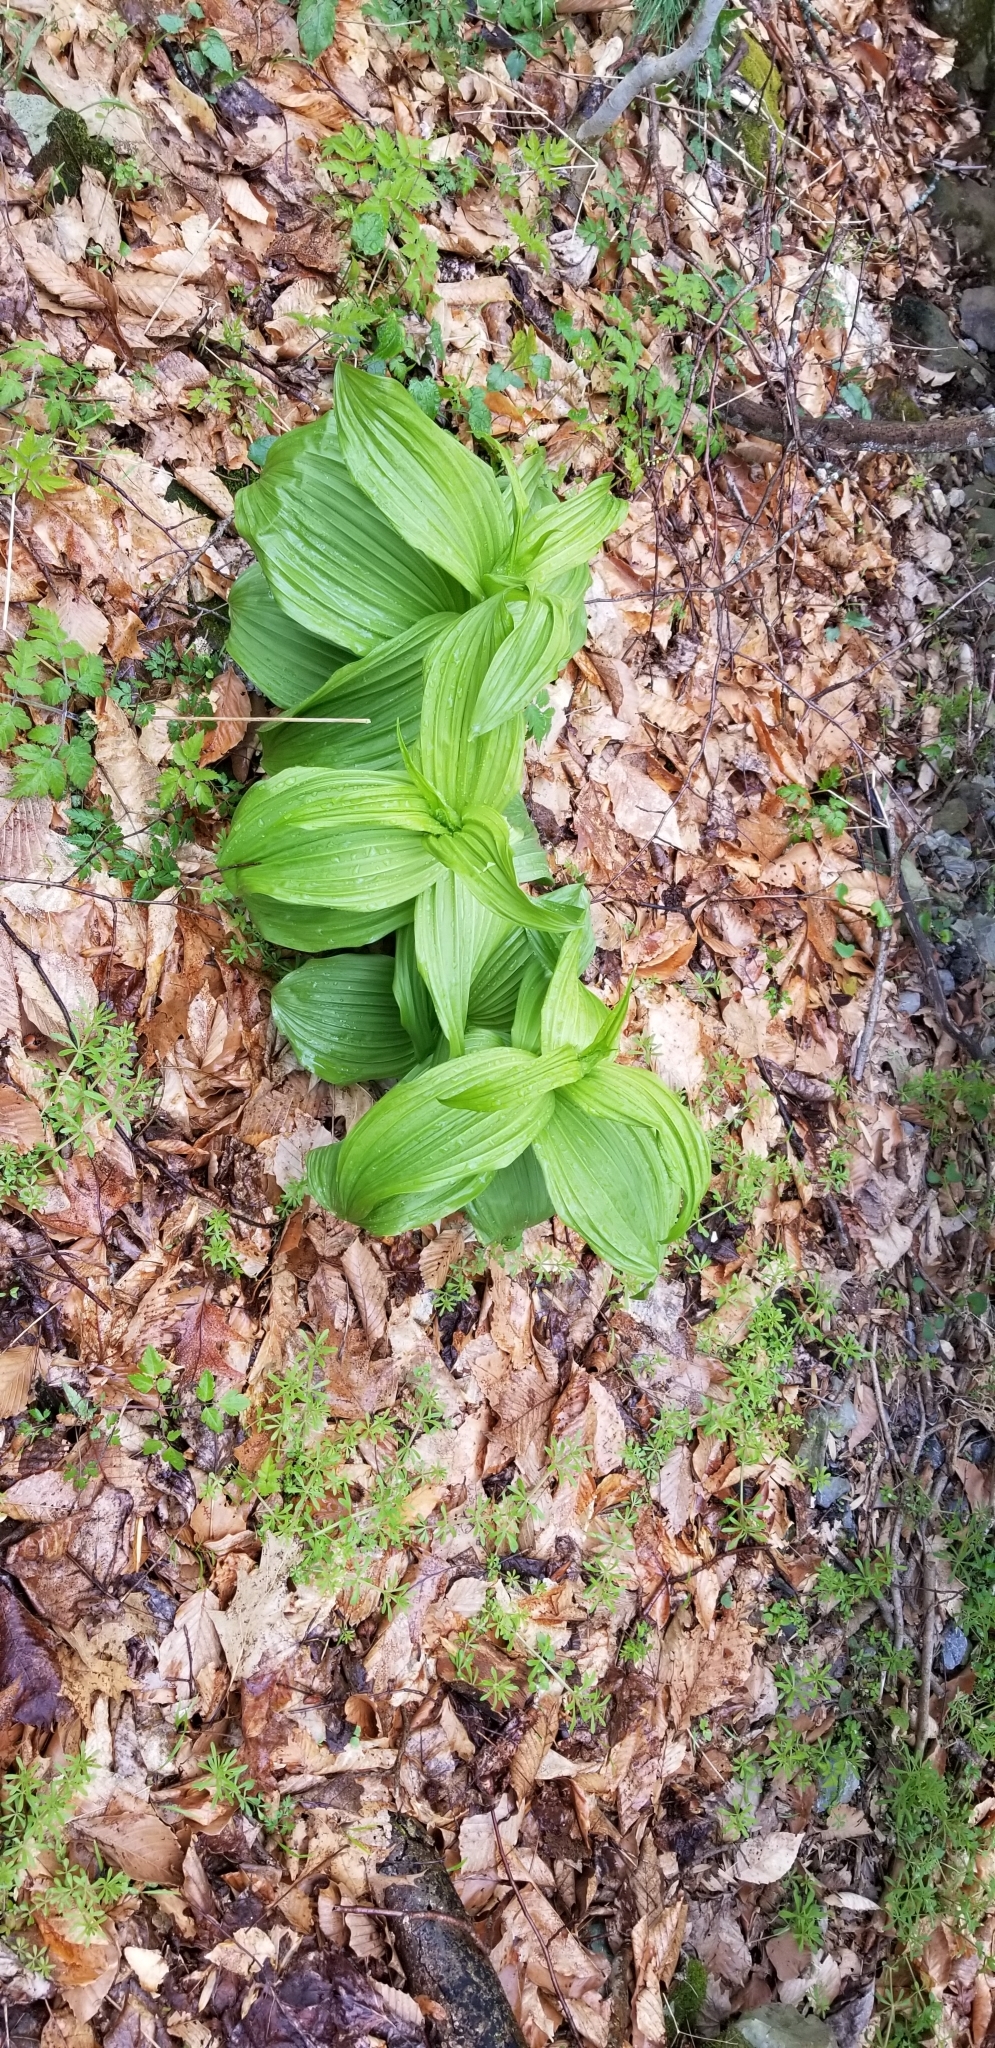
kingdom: Plantae
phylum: Tracheophyta
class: Liliopsida
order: Liliales
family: Melanthiaceae
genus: Veratrum
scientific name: Veratrum viride
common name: American false hellebore
